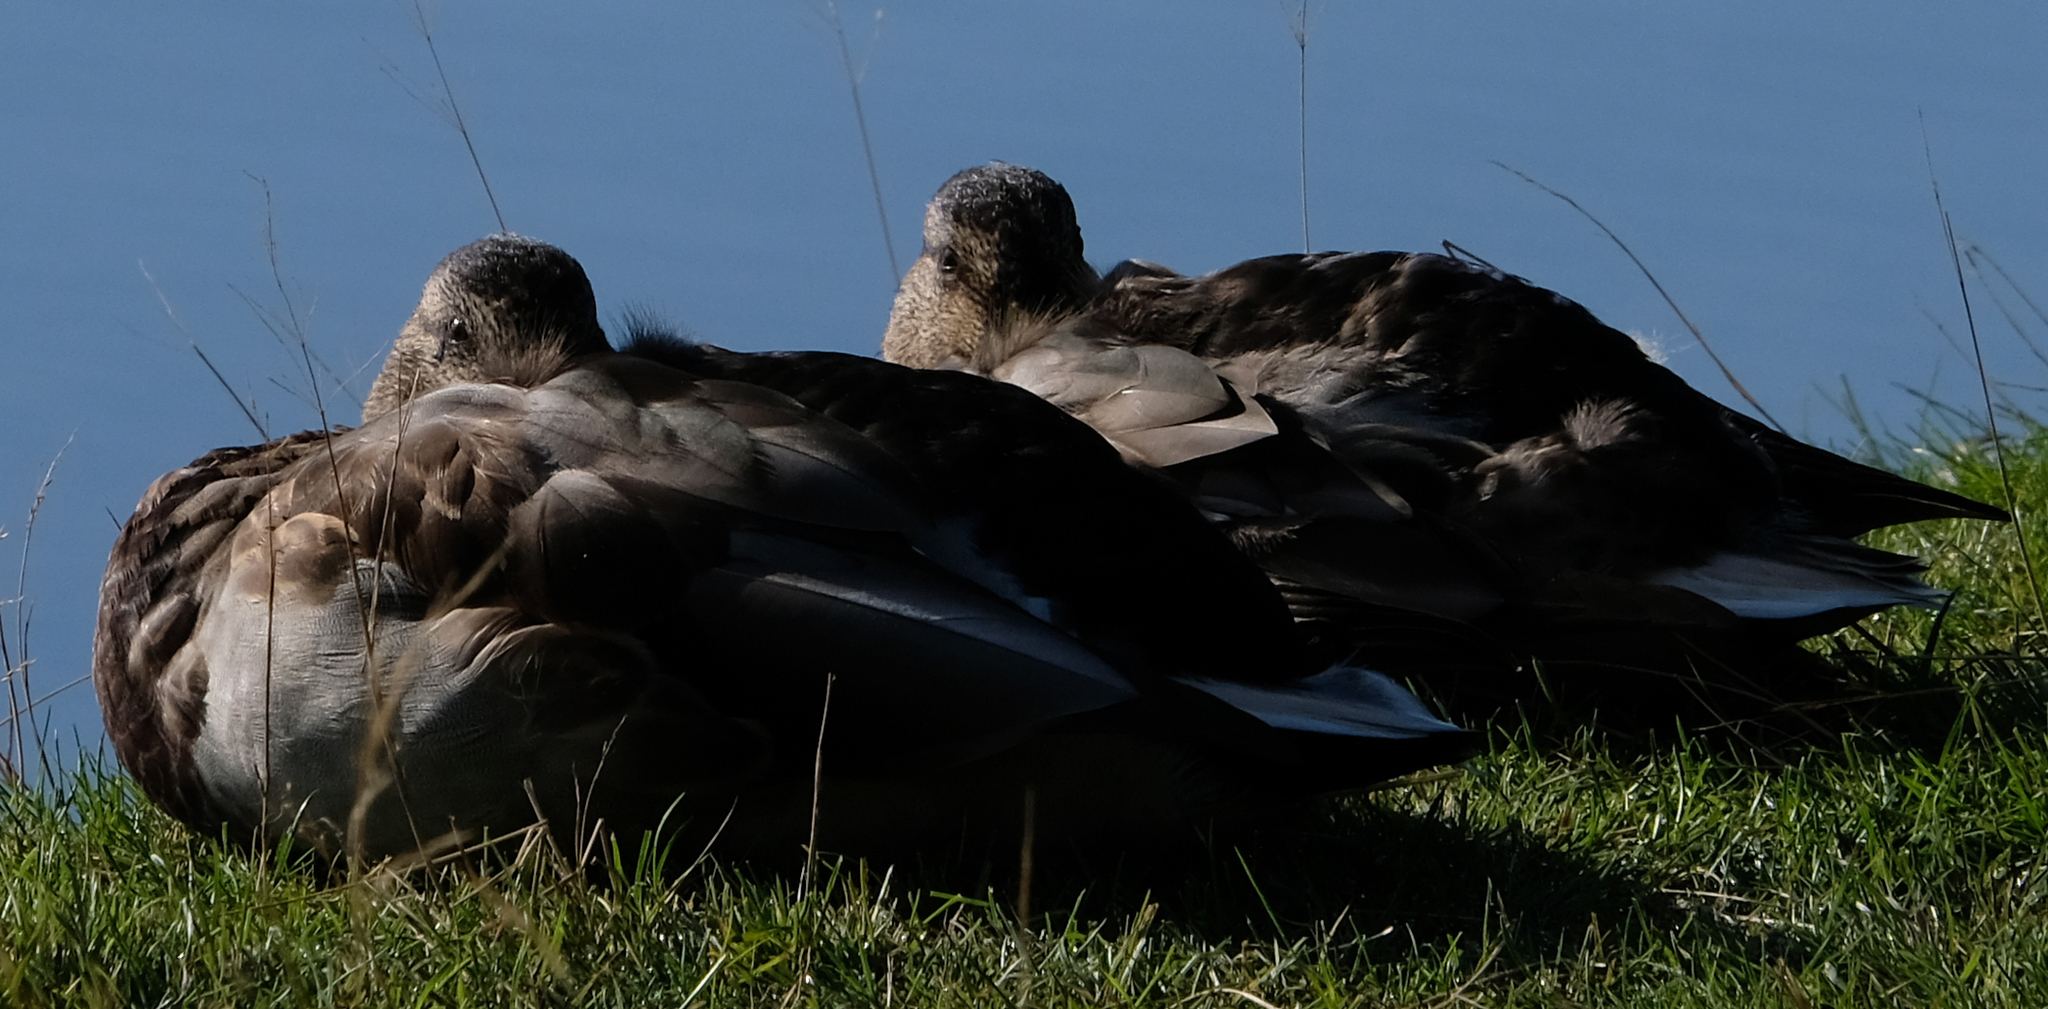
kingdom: Animalia
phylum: Chordata
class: Aves
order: Anseriformes
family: Anatidae
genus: Anas
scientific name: Anas platyrhynchos
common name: Mallard
